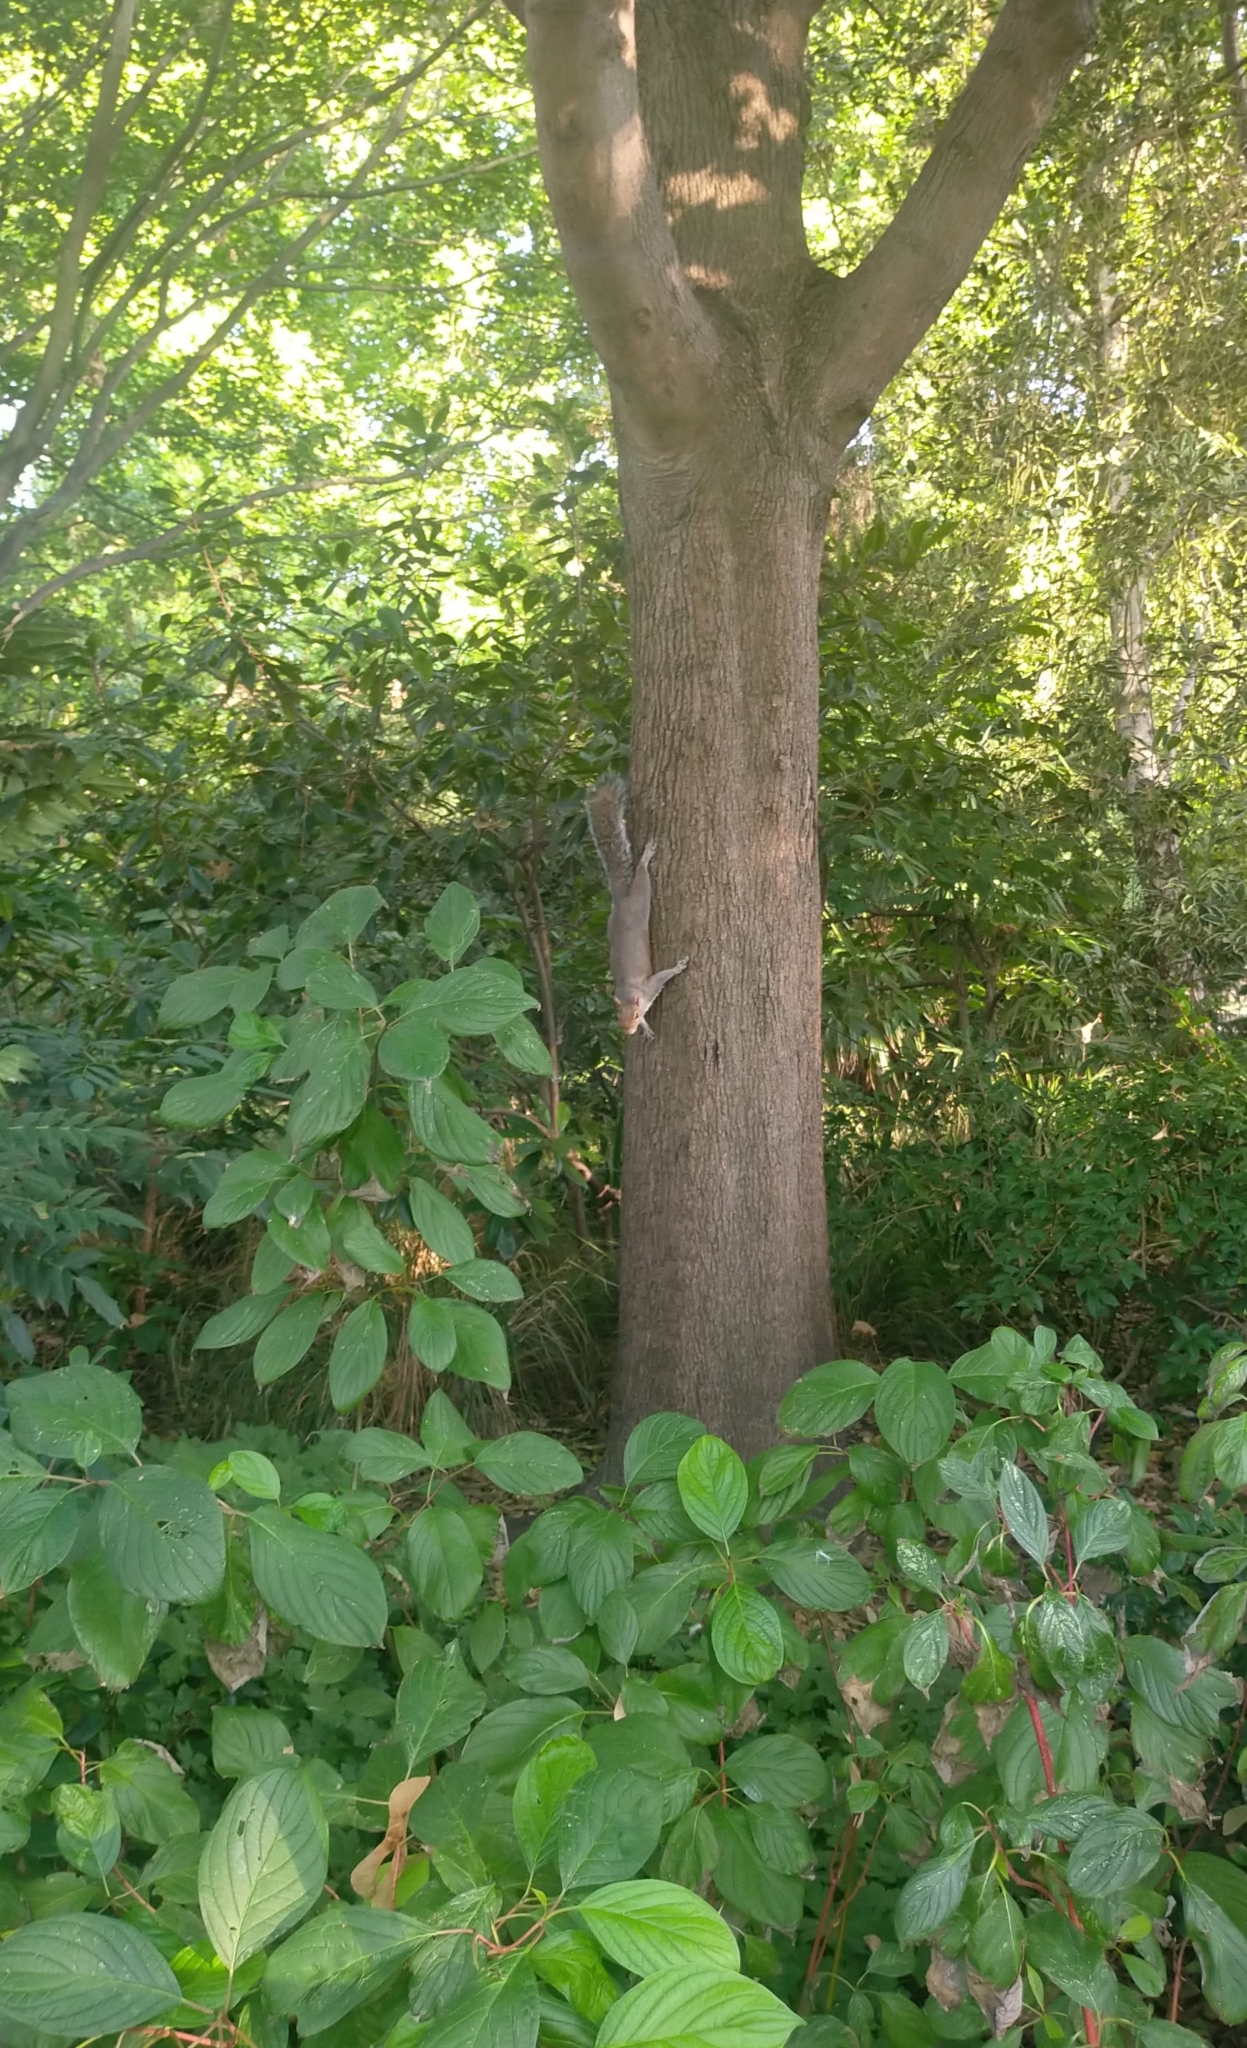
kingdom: Animalia
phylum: Chordata
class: Mammalia
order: Rodentia
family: Sciuridae
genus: Sciurus
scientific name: Sciurus carolinensis
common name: Eastern gray squirrel
